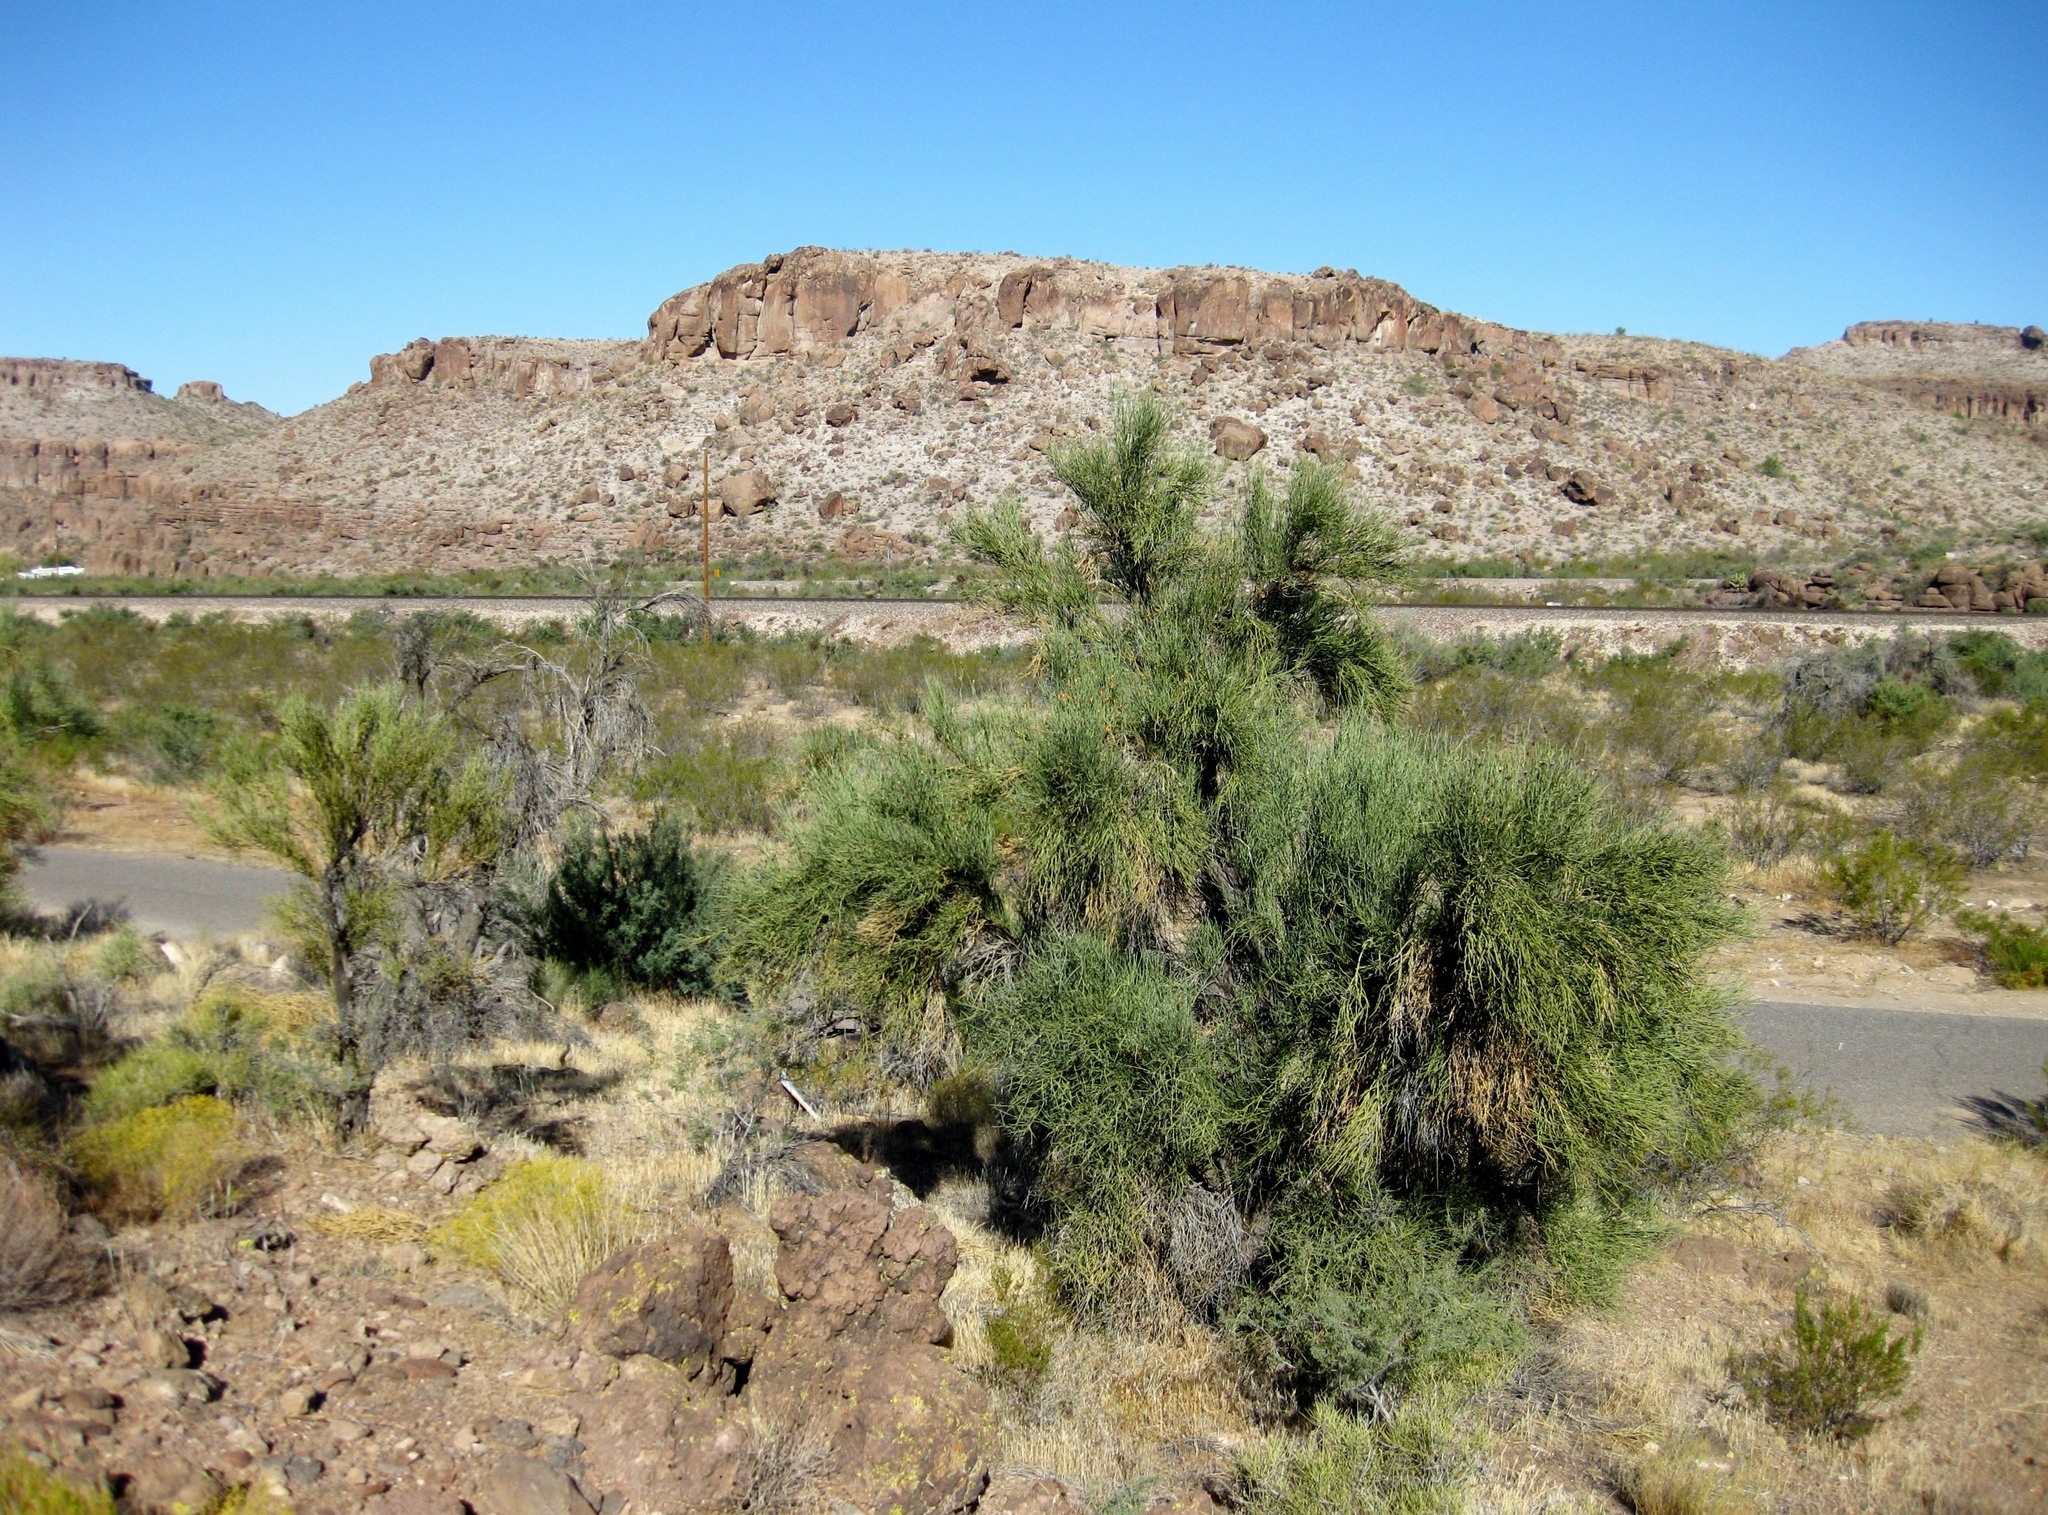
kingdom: Plantae
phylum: Tracheophyta
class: Magnoliopsida
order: Celastrales
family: Celastraceae
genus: Canotia
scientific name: Canotia holacantha
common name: Crucifixion thorns
